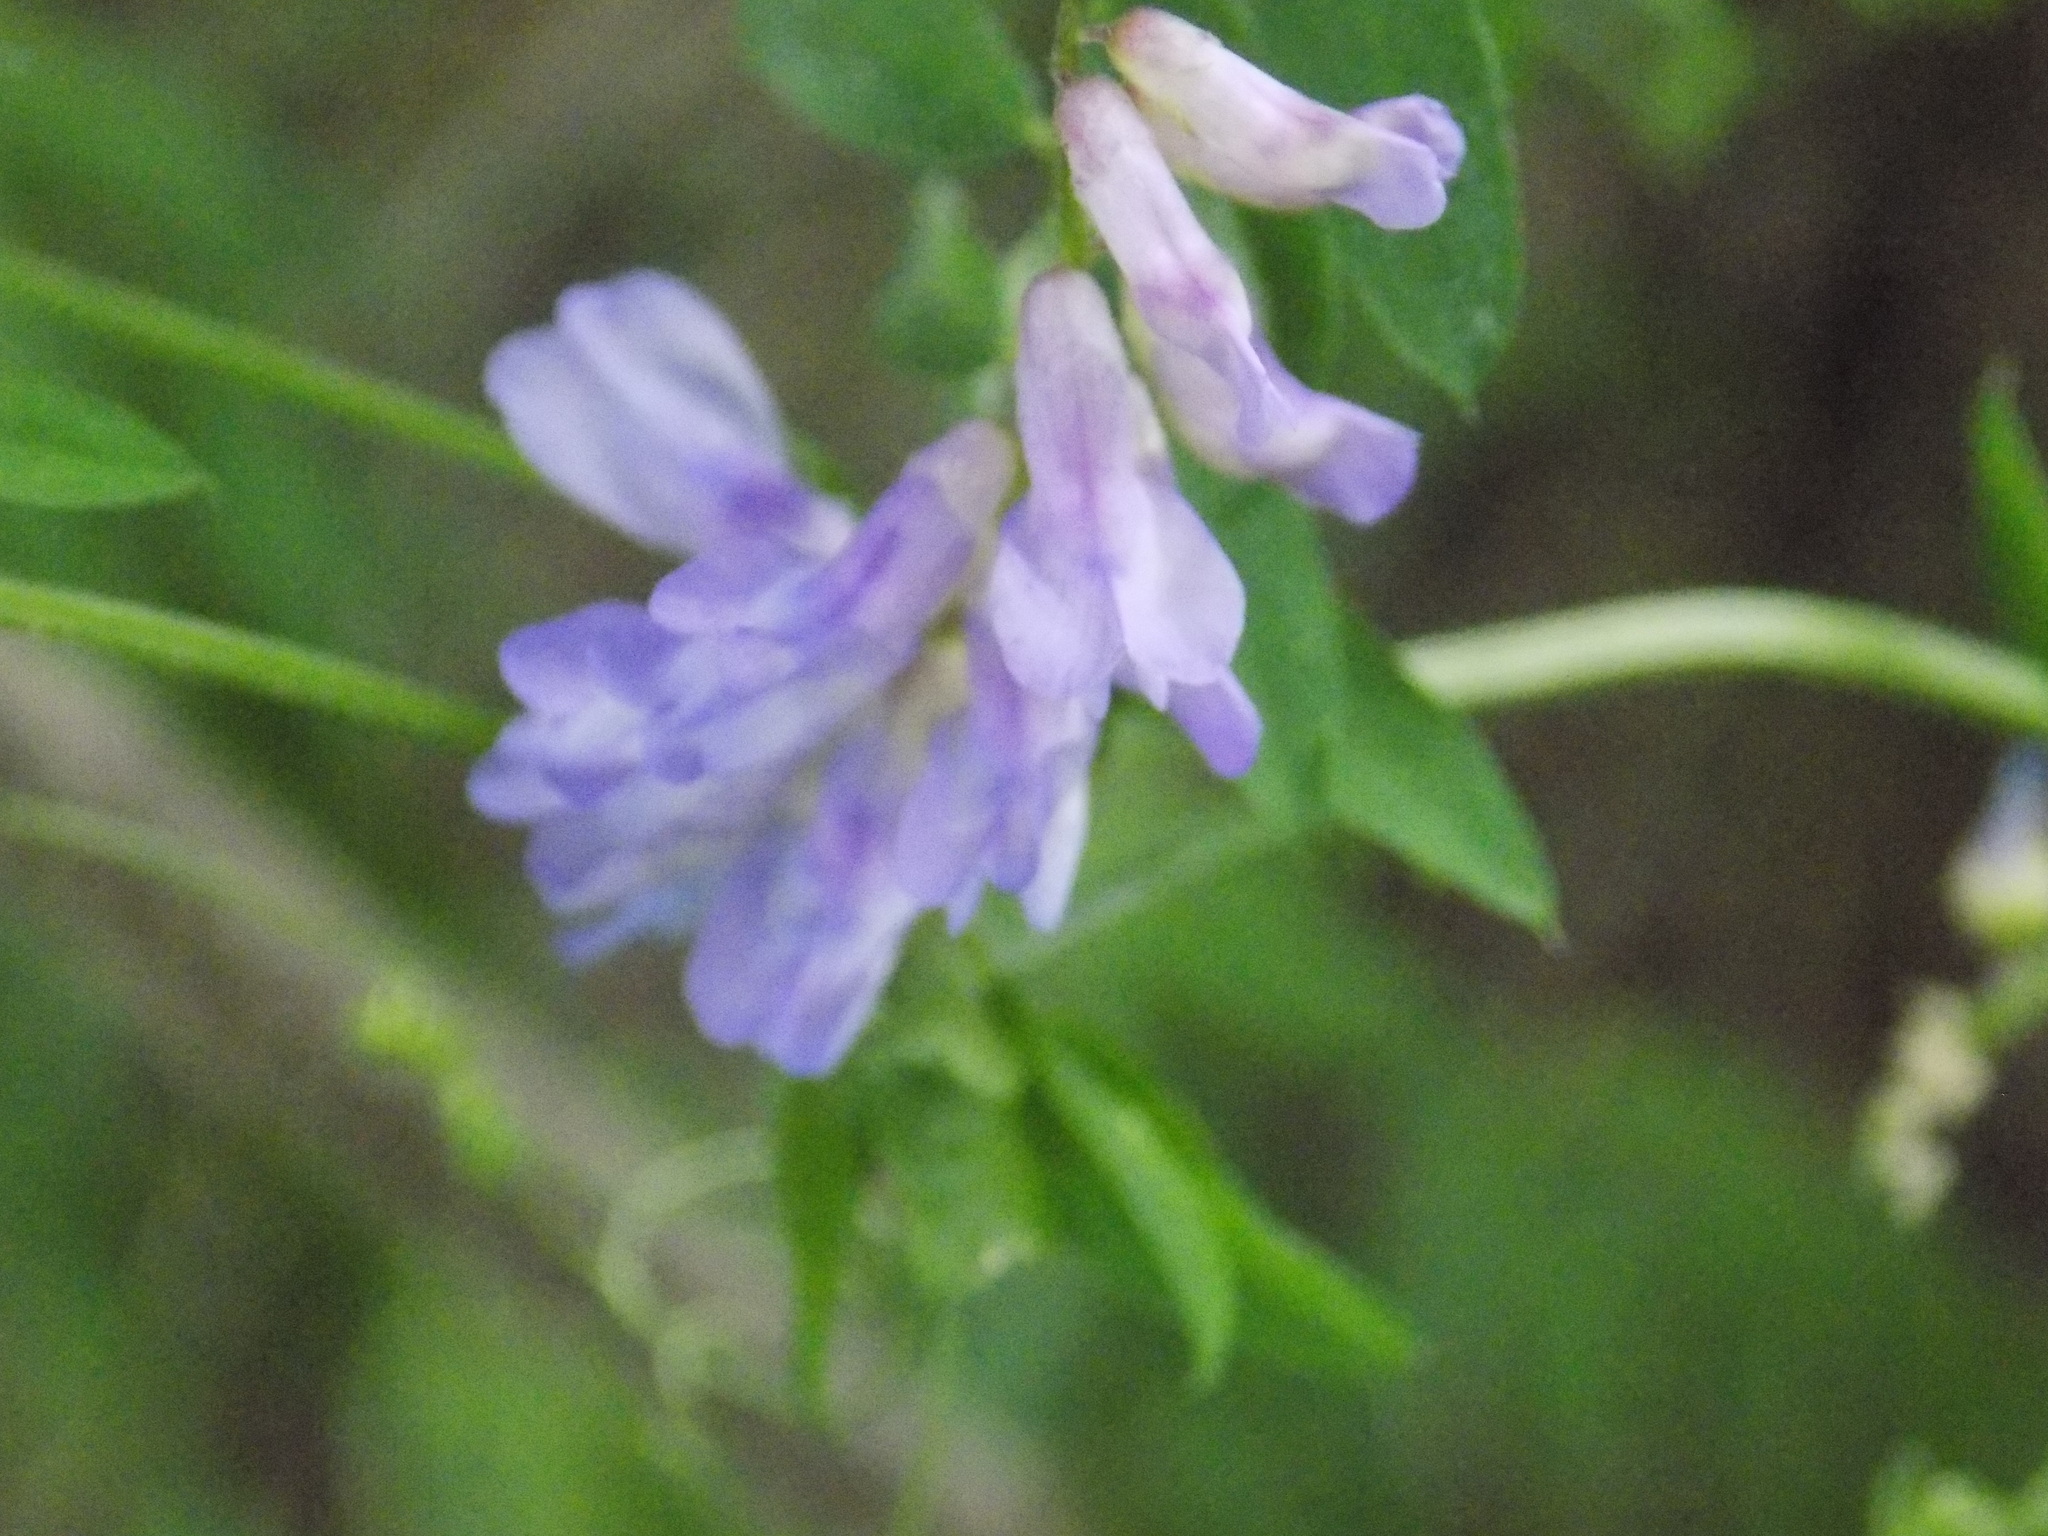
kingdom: Plantae
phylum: Tracheophyta
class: Magnoliopsida
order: Fabales
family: Fabaceae
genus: Vicia
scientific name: Vicia cracca
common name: Bird vetch
